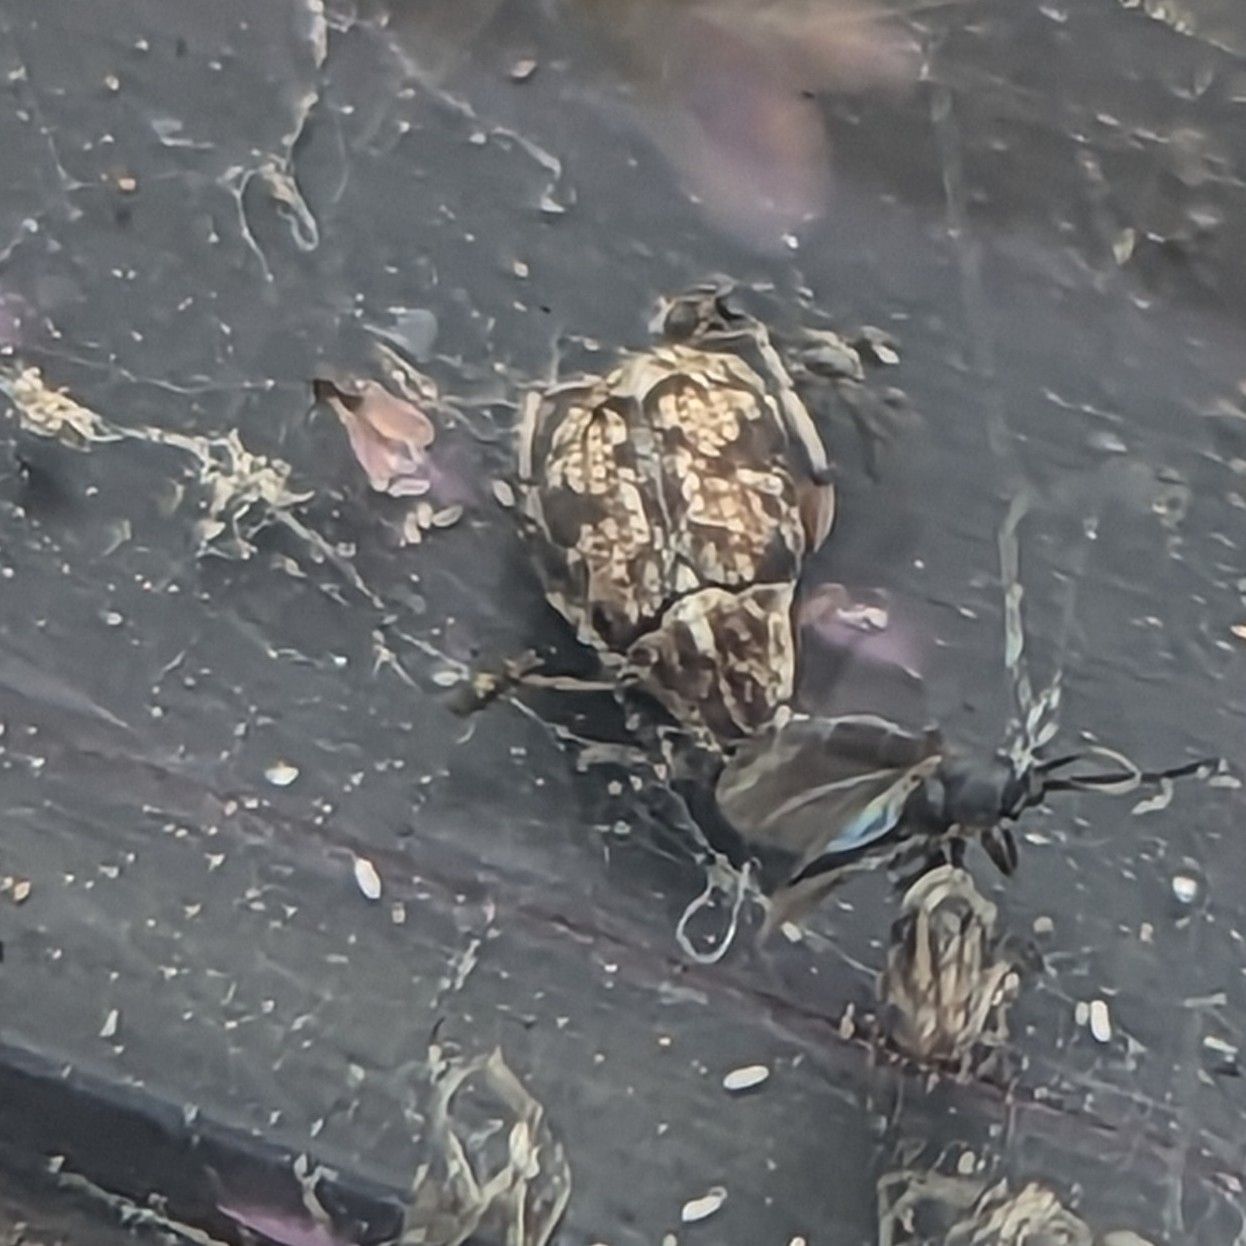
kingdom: Animalia
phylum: Arthropoda
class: Insecta
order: Coleoptera
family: Chrysomelidae
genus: Algarobius
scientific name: Algarobius prosopis
